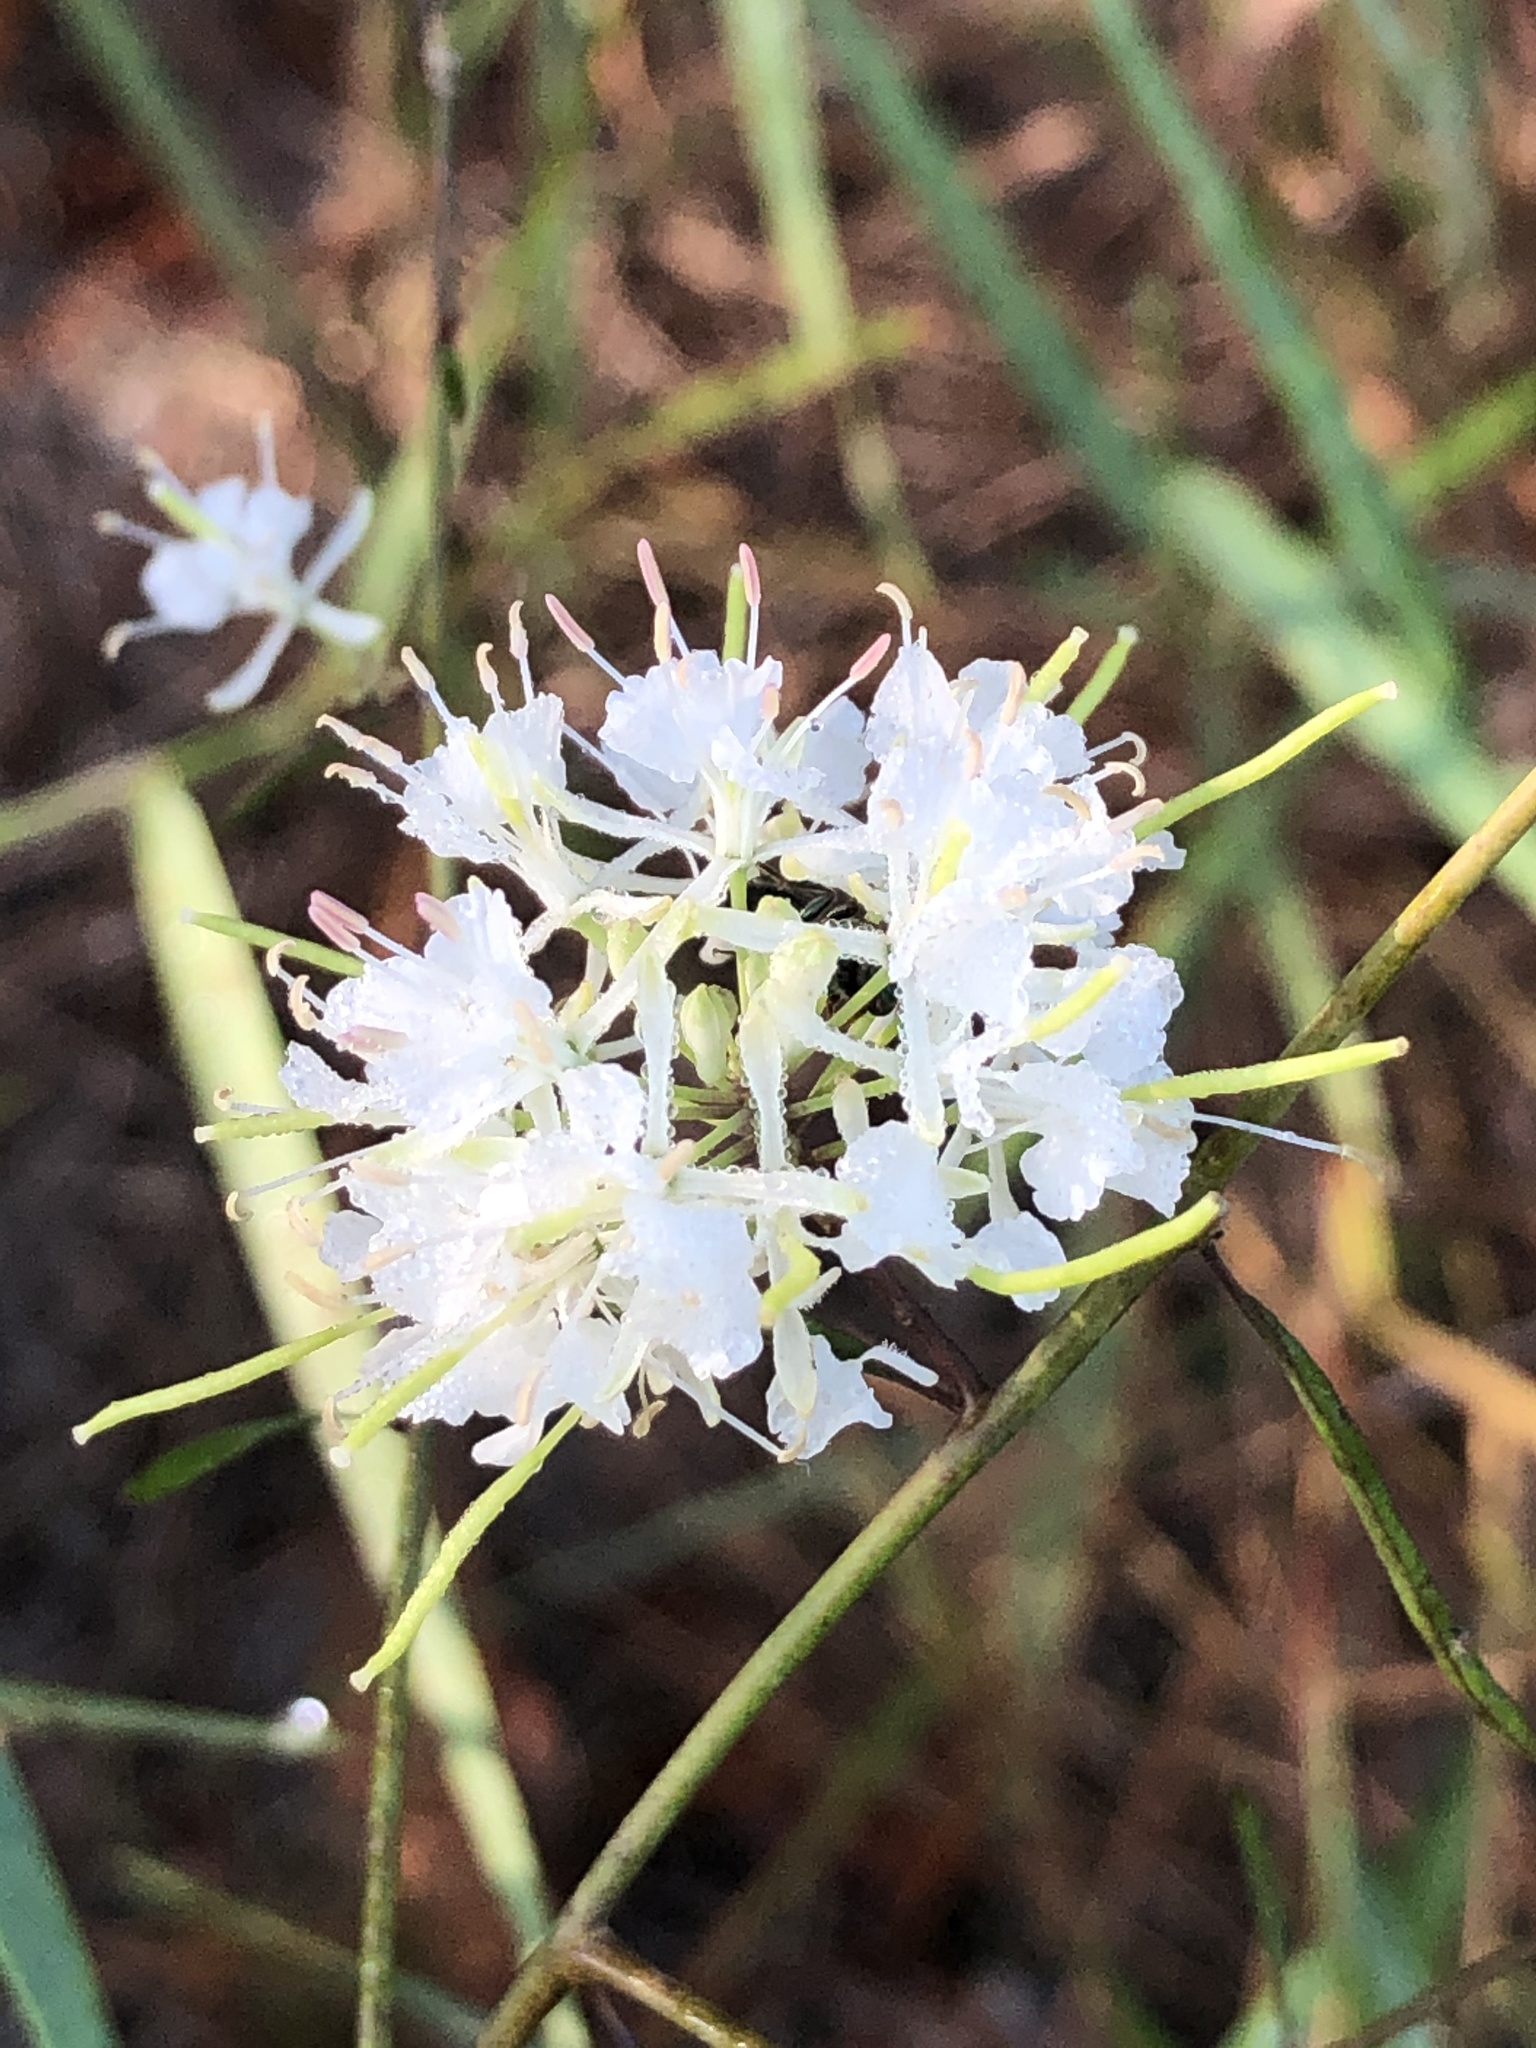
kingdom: Plantae
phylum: Tracheophyta
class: Magnoliopsida
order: Brassicales
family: Brassicaceae
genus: Warea
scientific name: Warea carteri
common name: Carter's mustard
